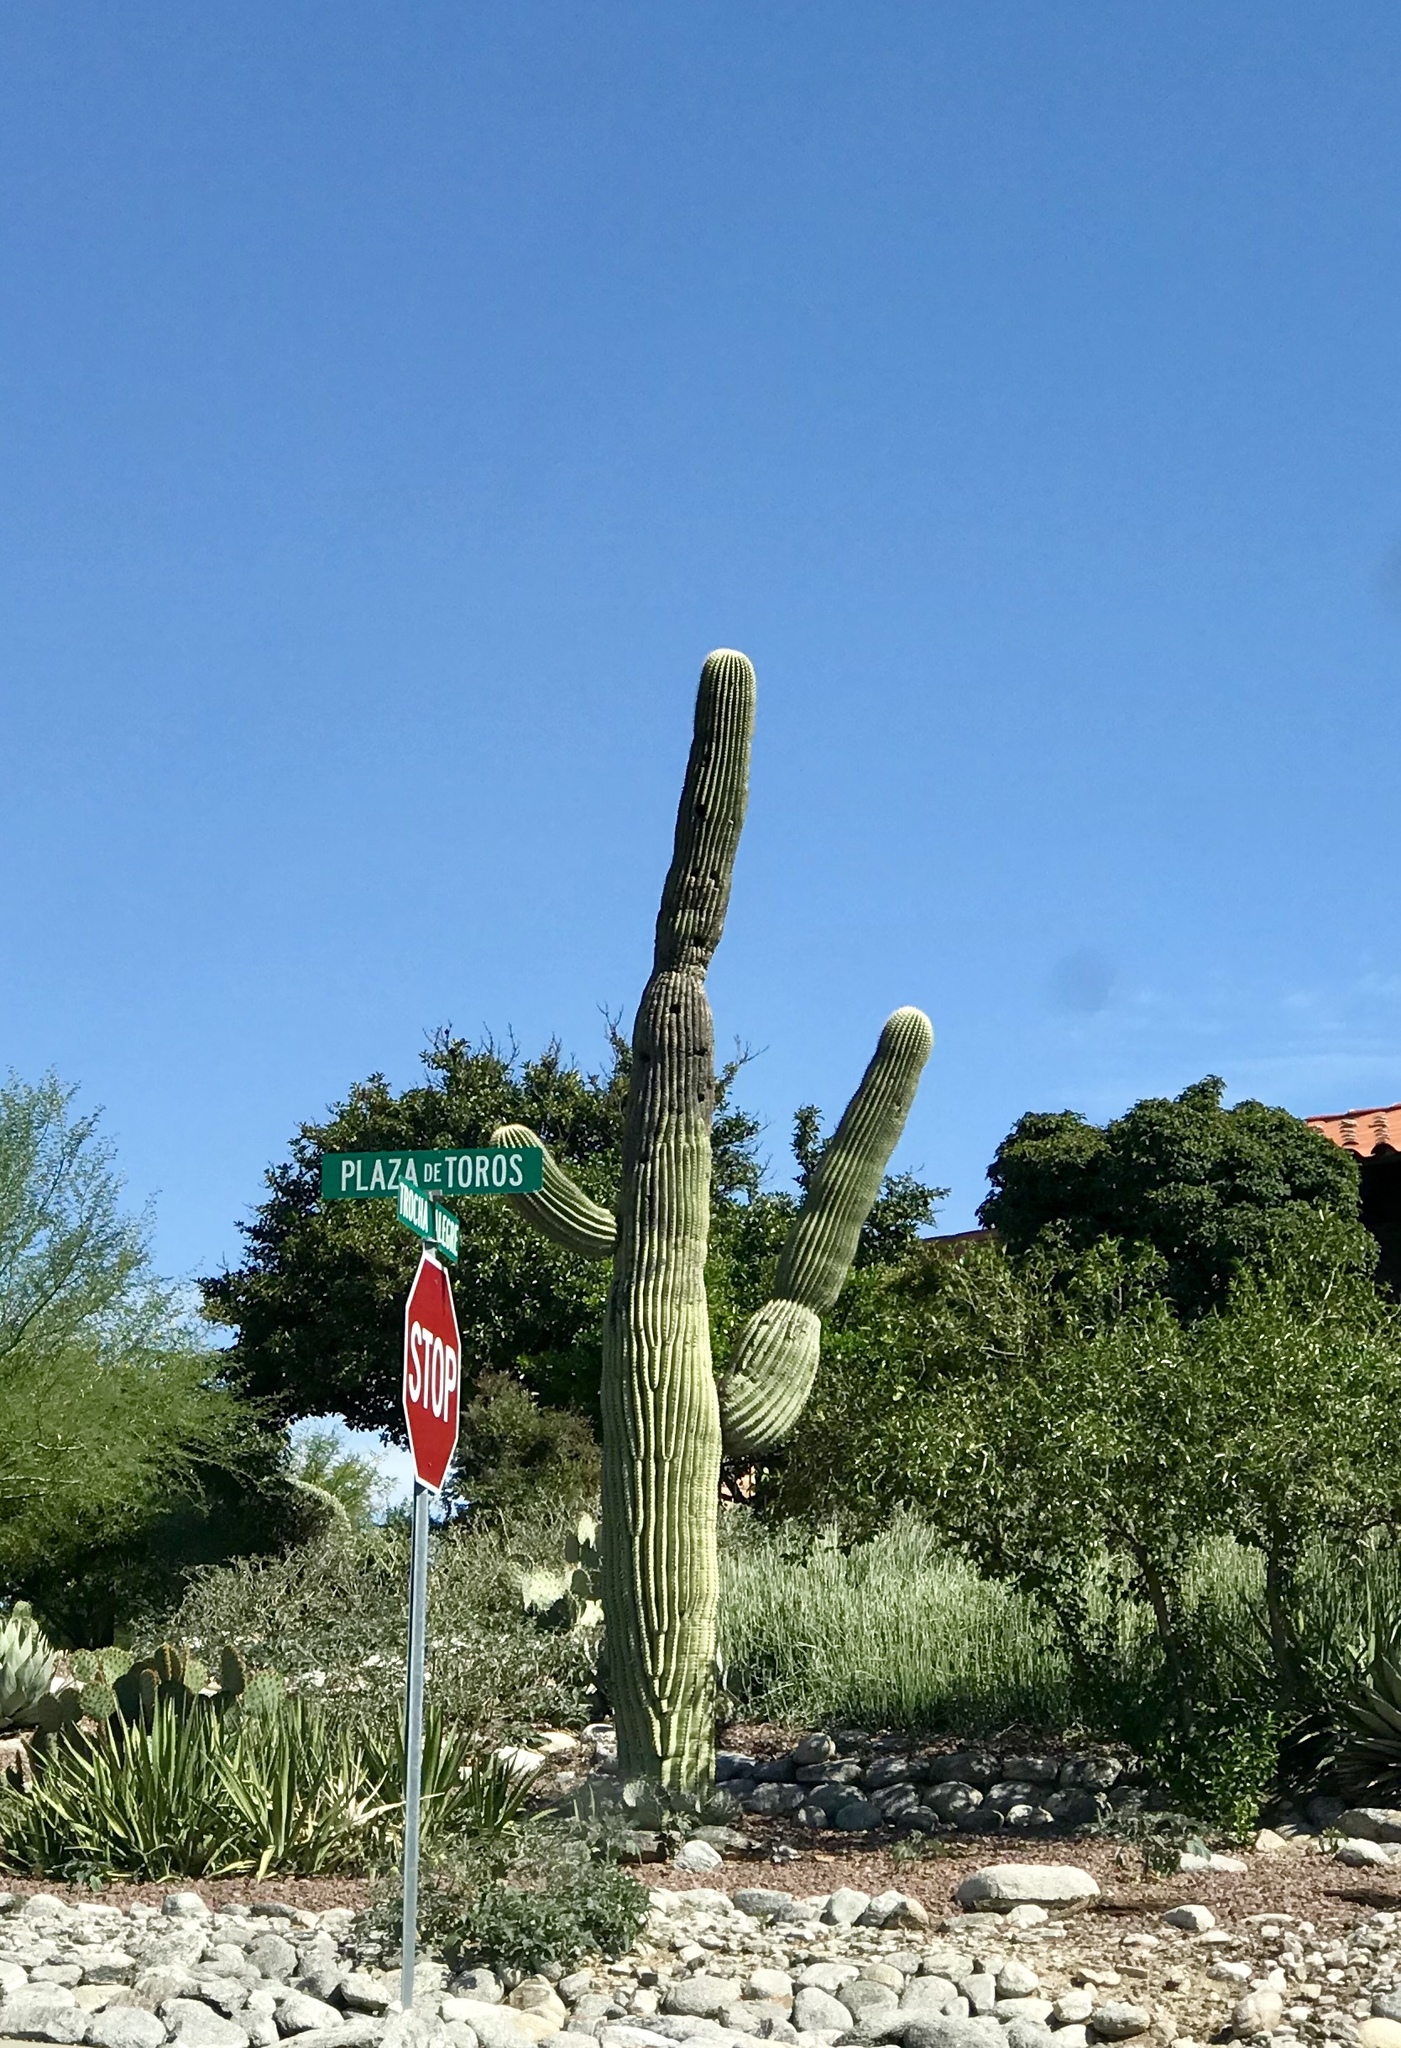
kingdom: Plantae
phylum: Tracheophyta
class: Magnoliopsida
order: Caryophyllales
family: Cactaceae
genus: Carnegiea
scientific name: Carnegiea gigantea
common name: Saguaro
